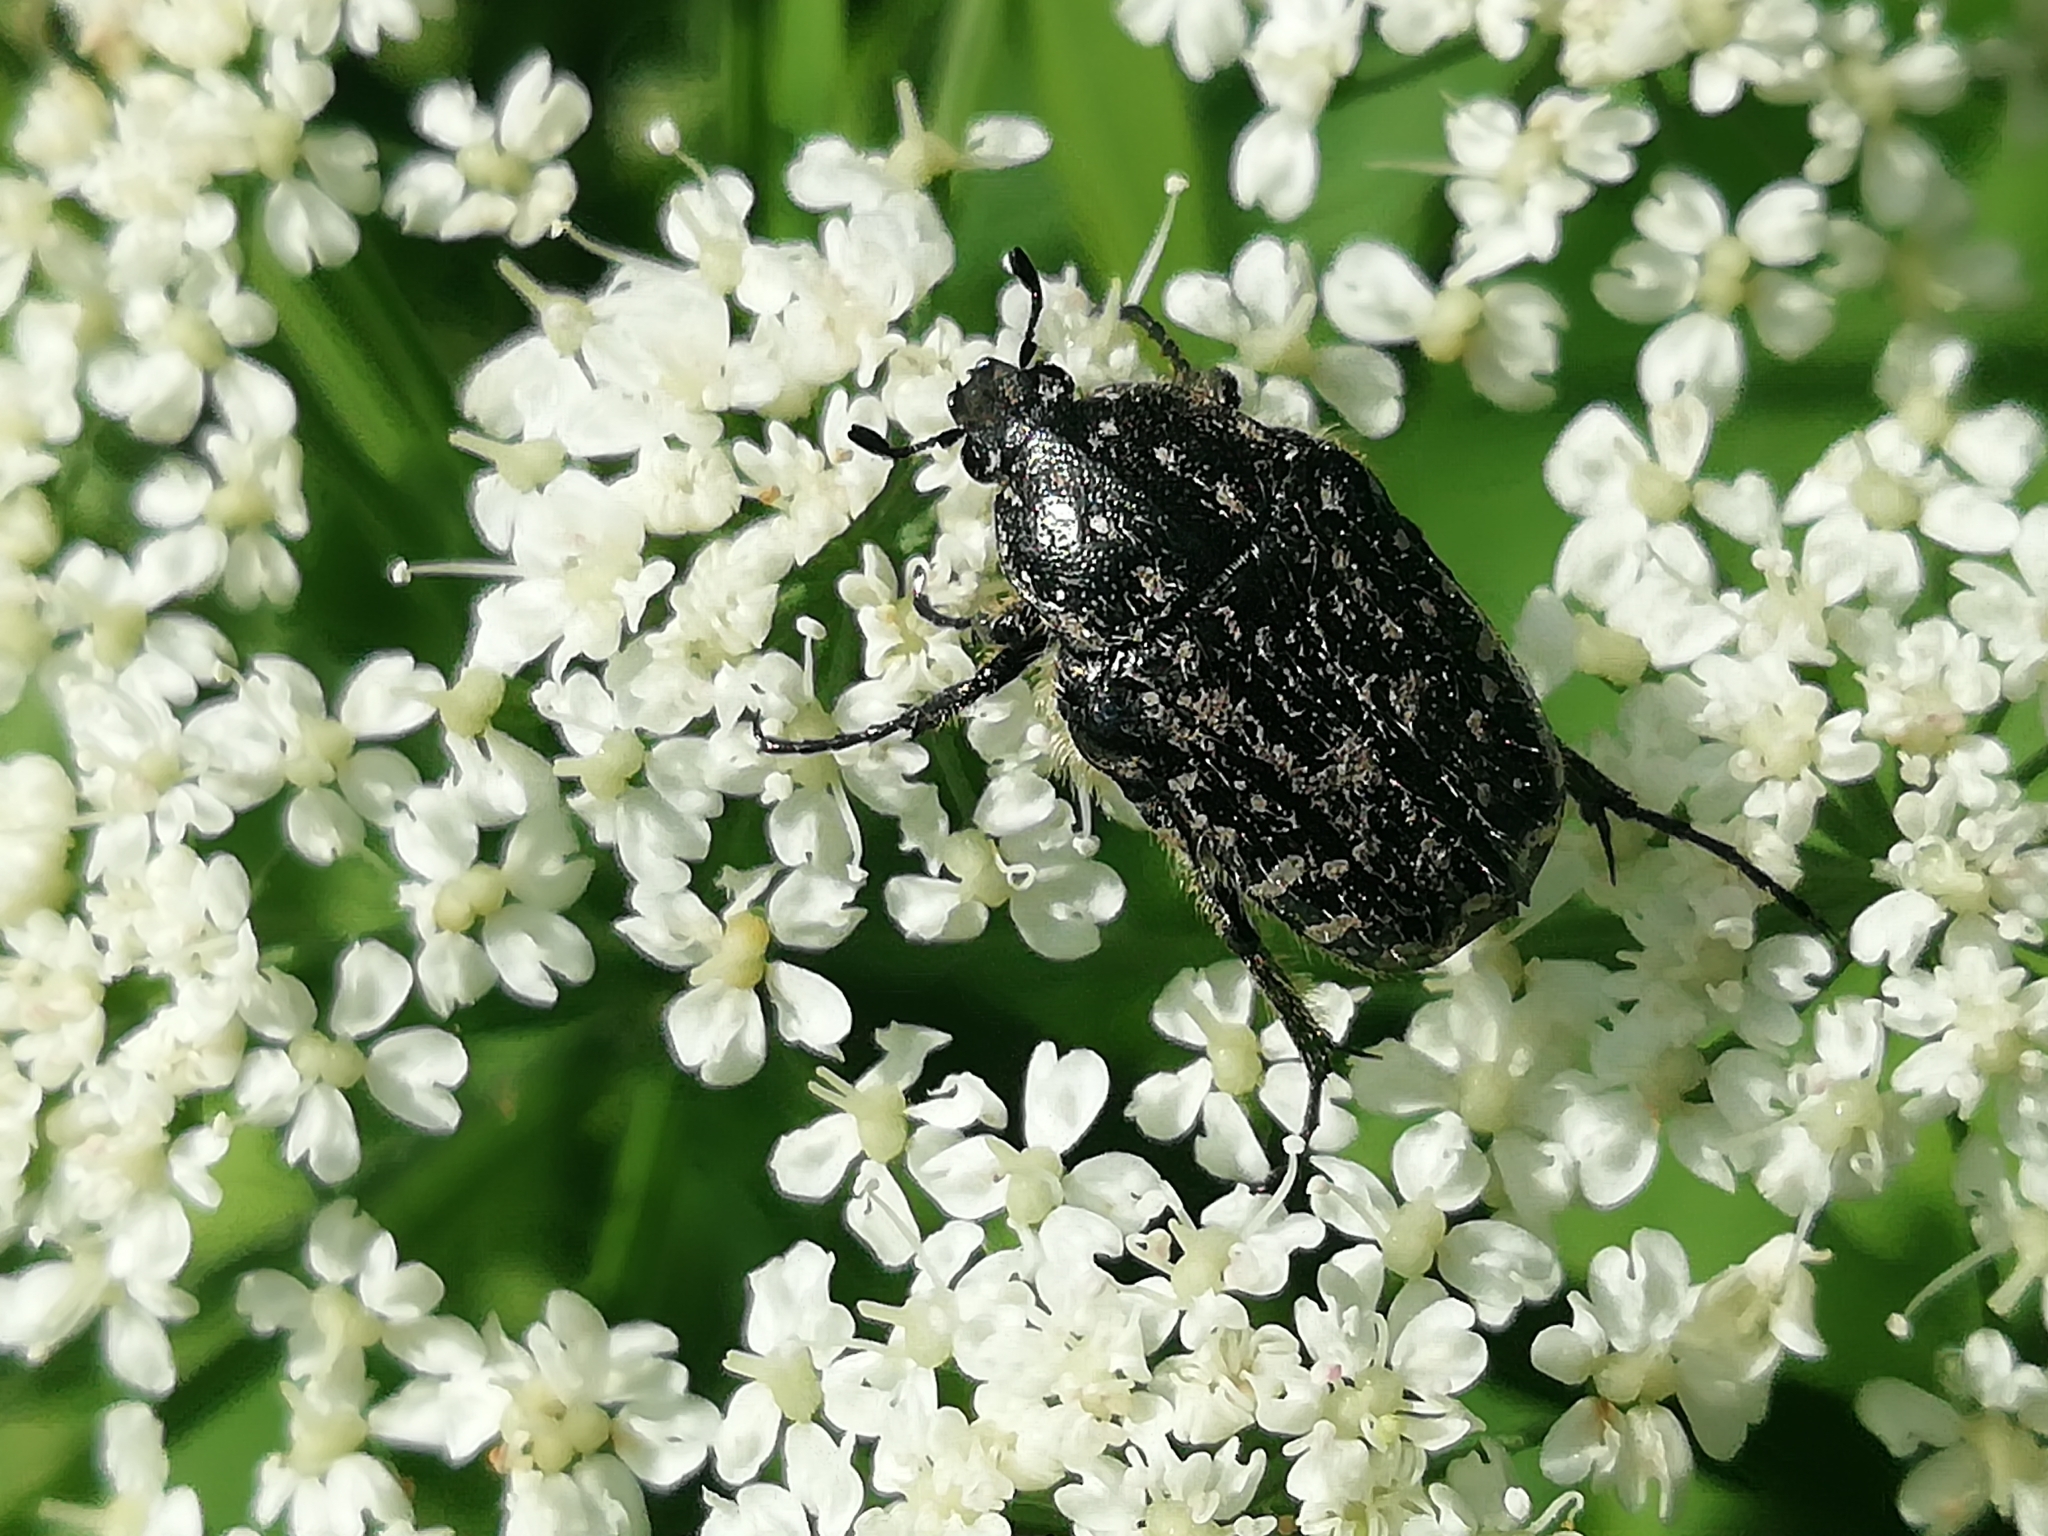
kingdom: Animalia
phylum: Arthropoda
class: Insecta
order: Coleoptera
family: Scarabaeidae
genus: Oxythyrea
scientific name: Oxythyrea funesta
